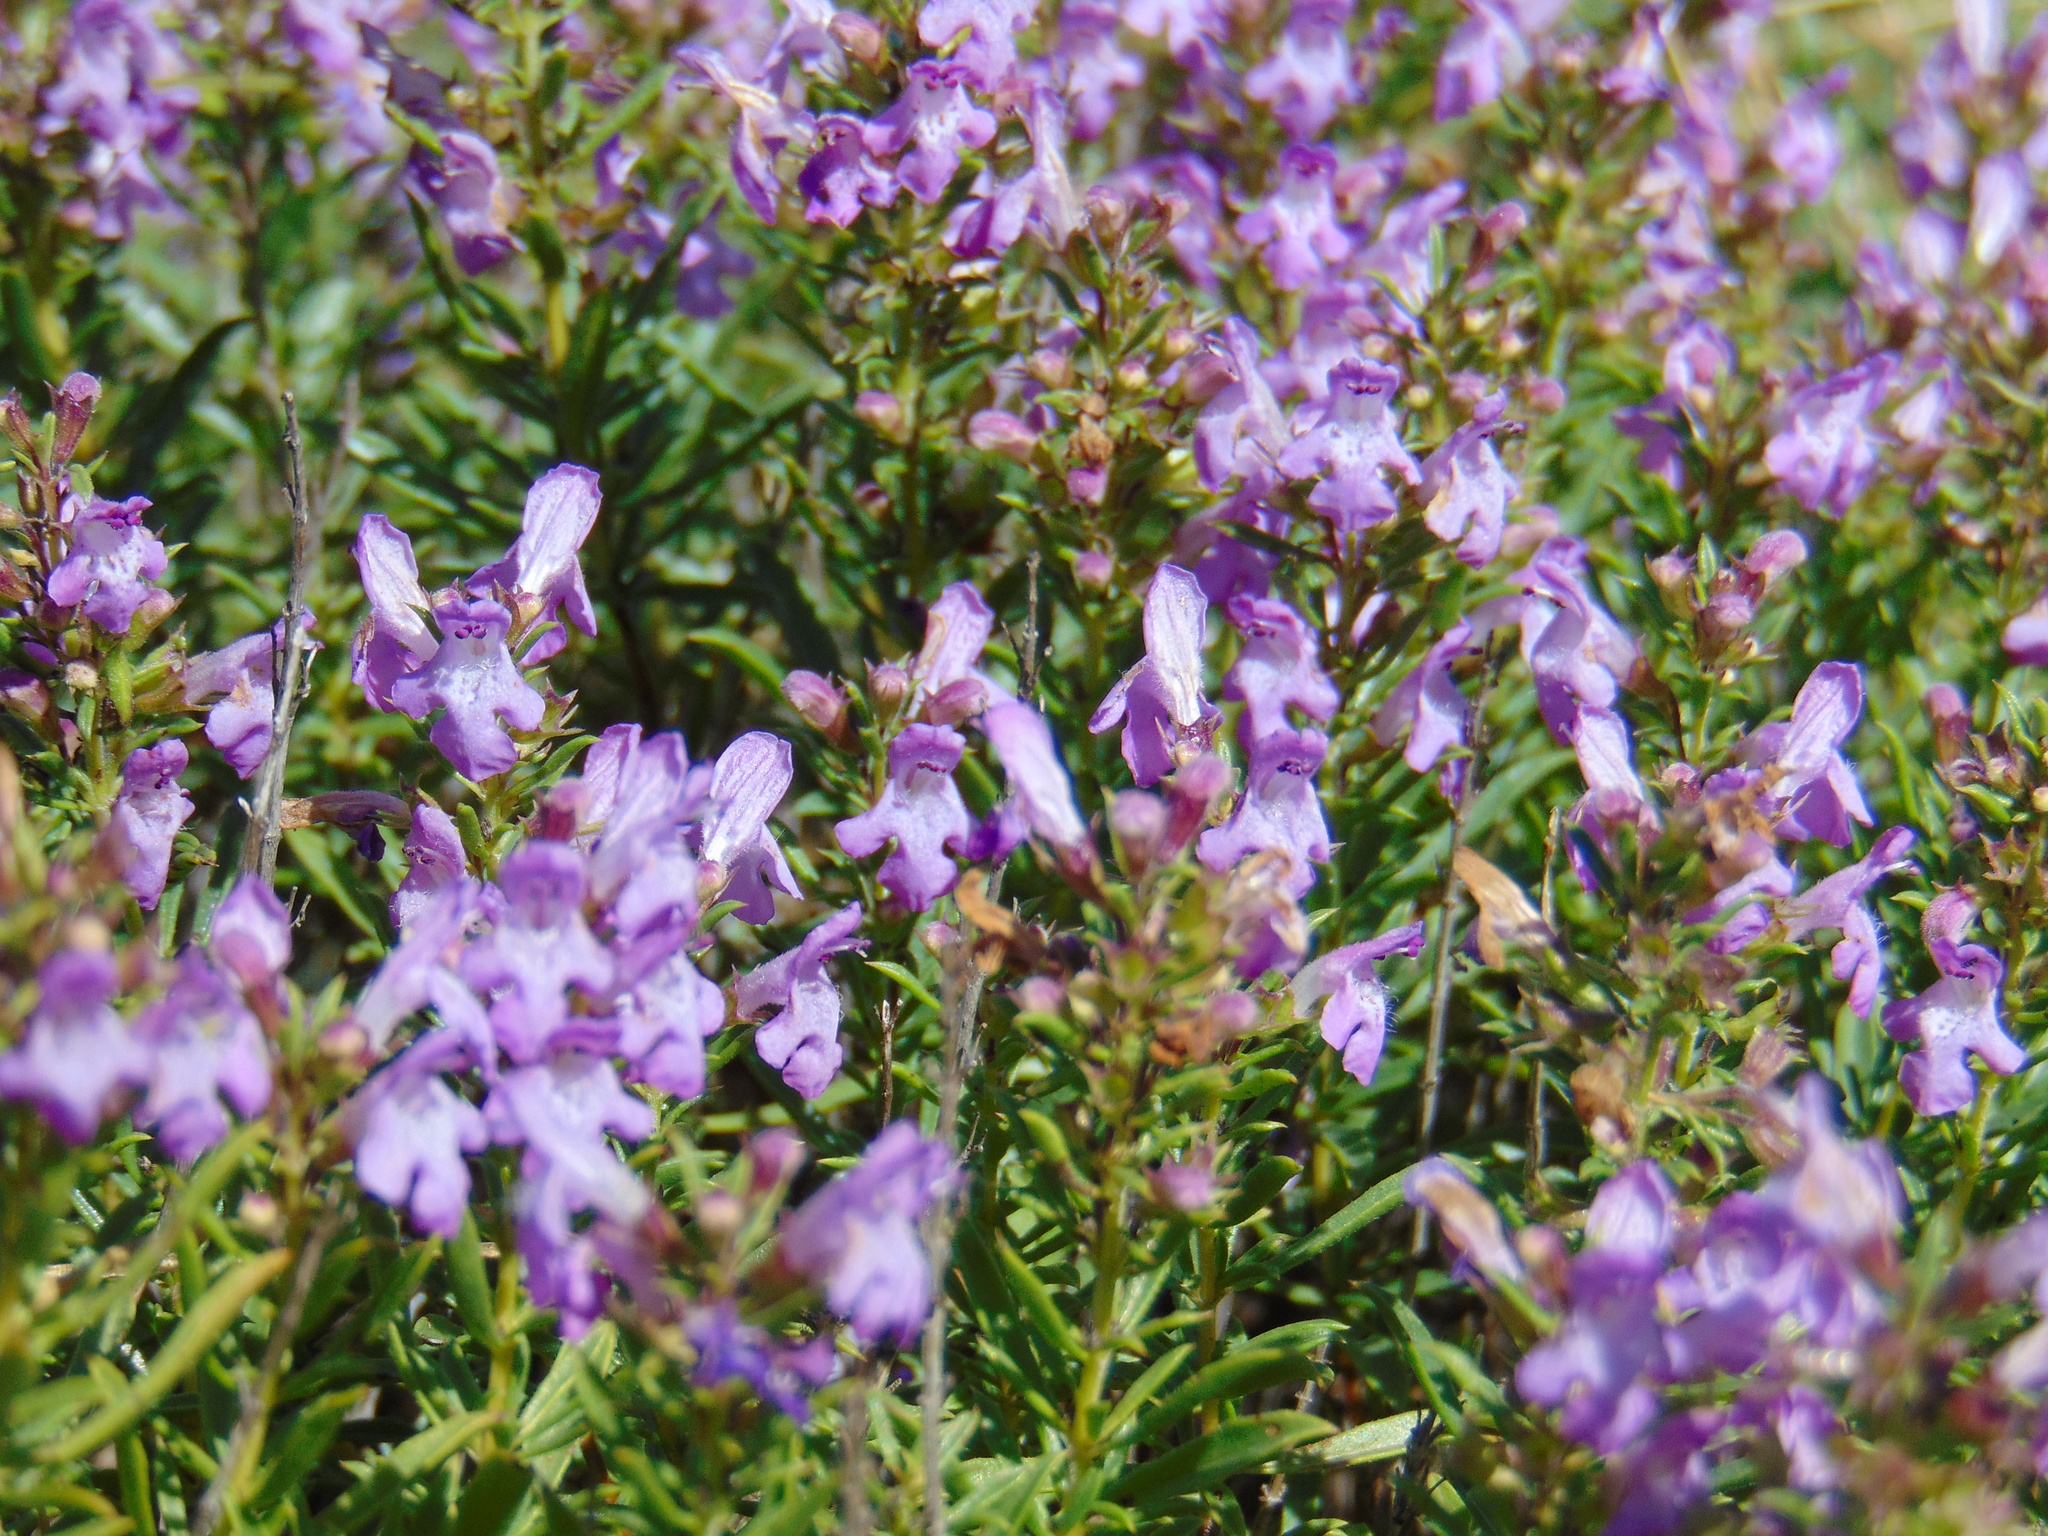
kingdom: Plantae
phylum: Tracheophyta
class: Magnoliopsida
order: Lamiales
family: Lamiaceae
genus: Satureja
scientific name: Satureja subspicata
